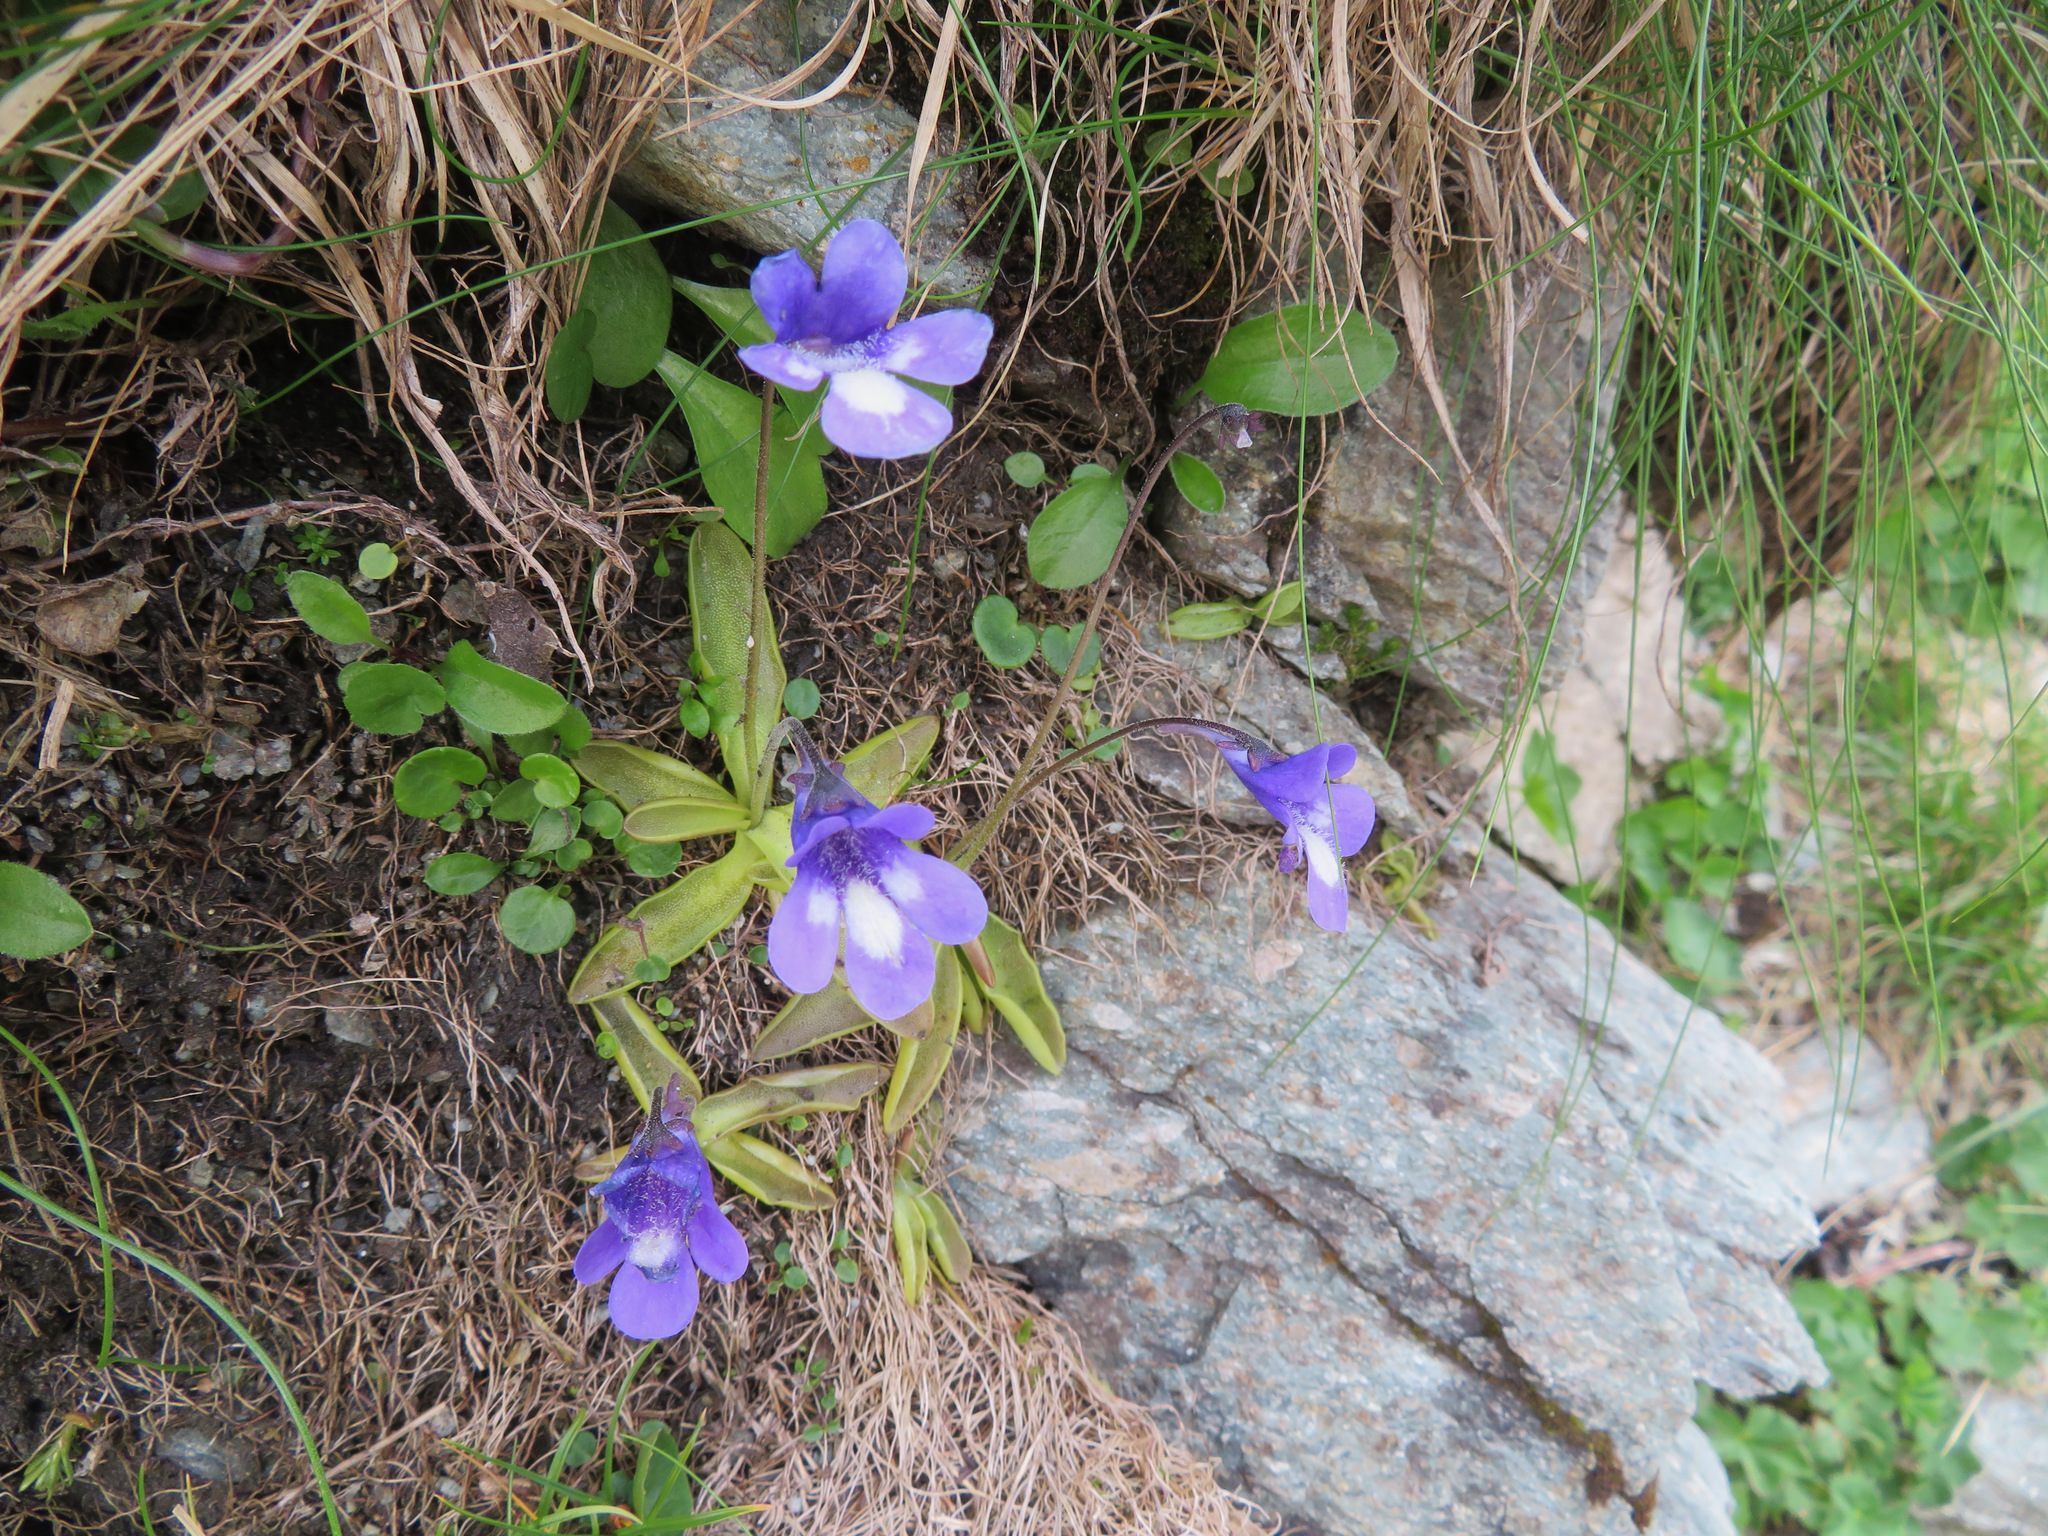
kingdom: Plantae
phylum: Tracheophyta
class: Magnoliopsida
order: Lamiales
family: Lentibulariaceae
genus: Pinguicula
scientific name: Pinguicula leptoceras
